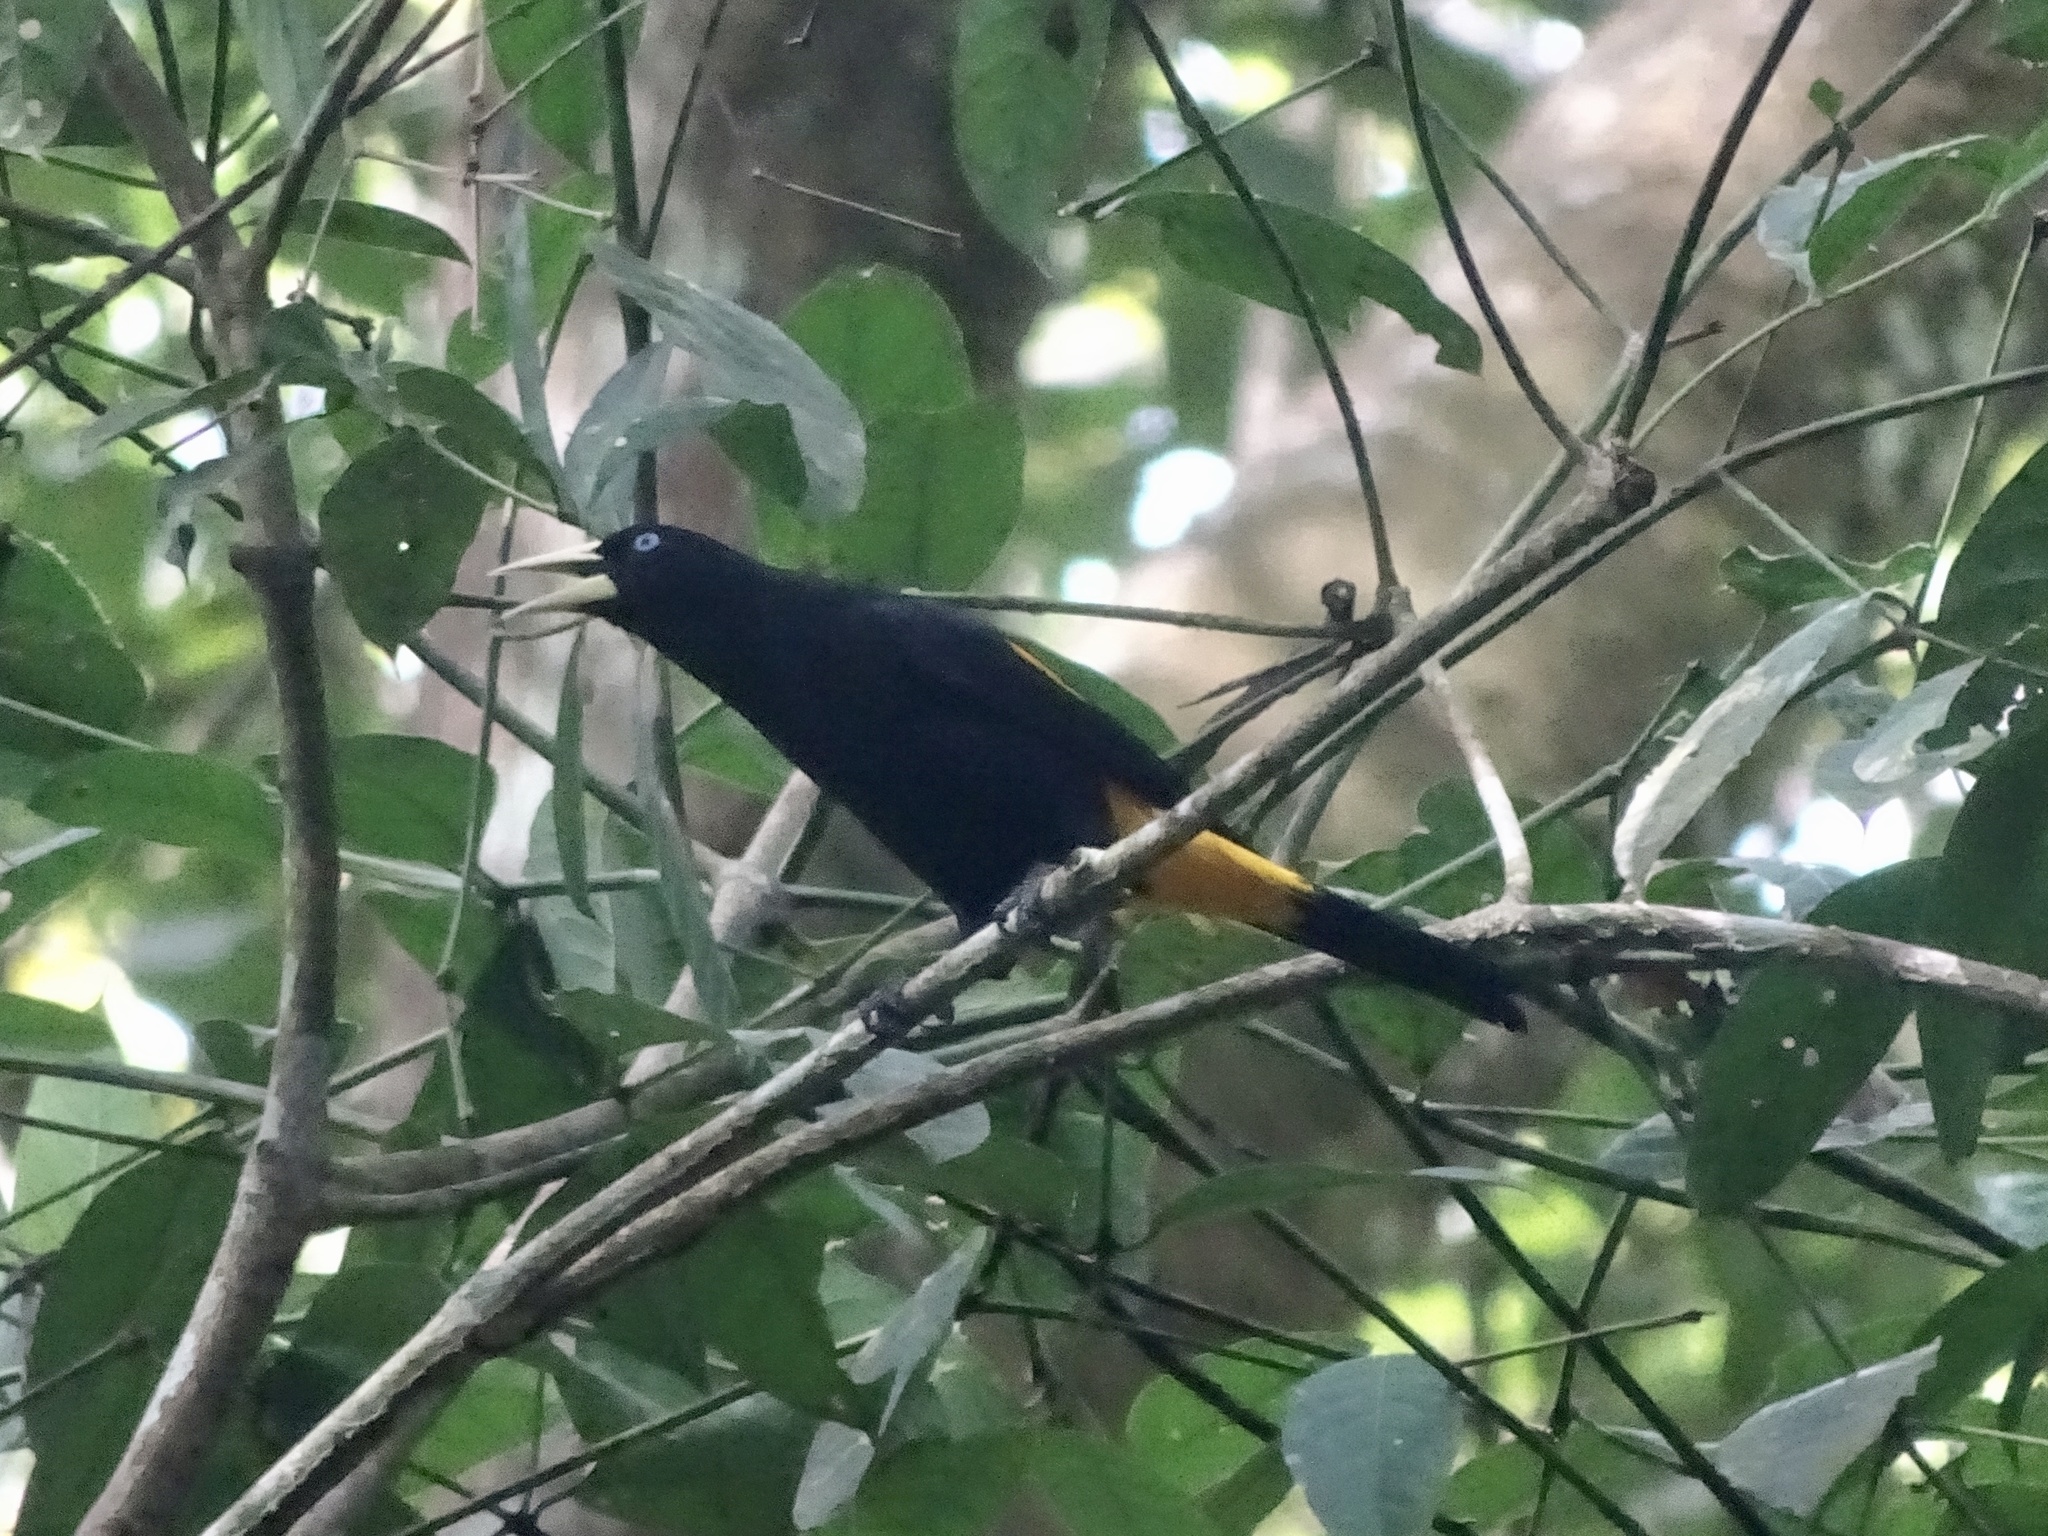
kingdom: Animalia
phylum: Chordata
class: Aves
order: Passeriformes
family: Icteridae
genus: Cacicus
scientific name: Cacicus cela
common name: Yellow-rumped cacique
